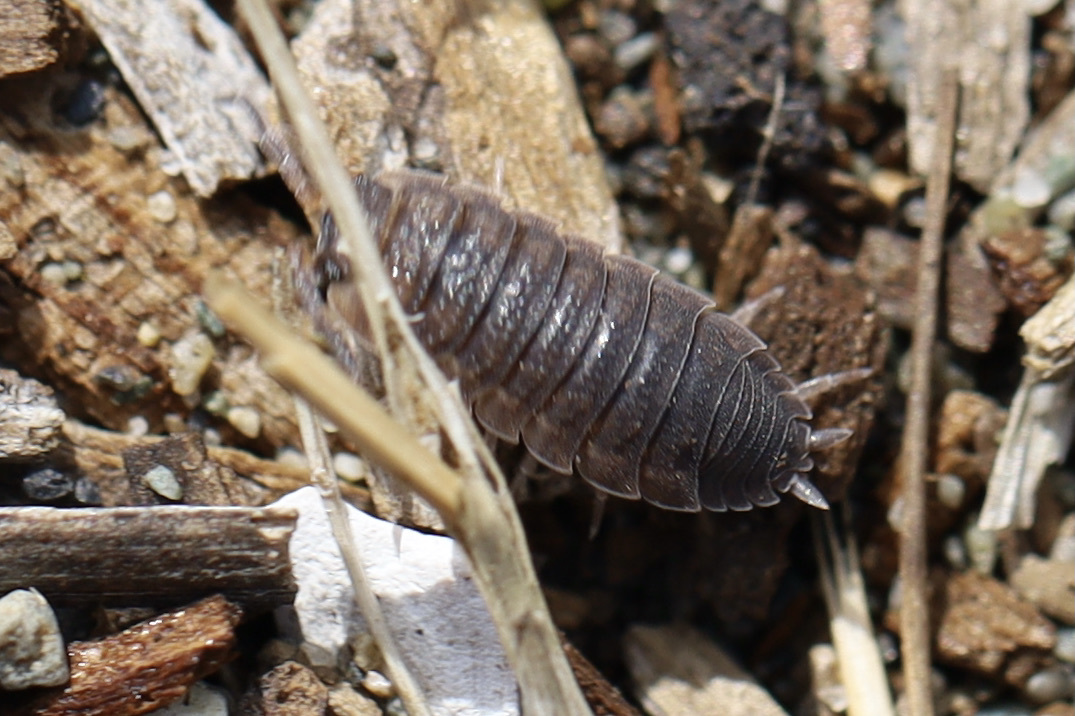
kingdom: Animalia
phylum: Arthropoda
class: Malacostraca
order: Isopoda
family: Porcellionidae
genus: Porcellio
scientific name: Porcellio scaber
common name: Common rough woodlouse
